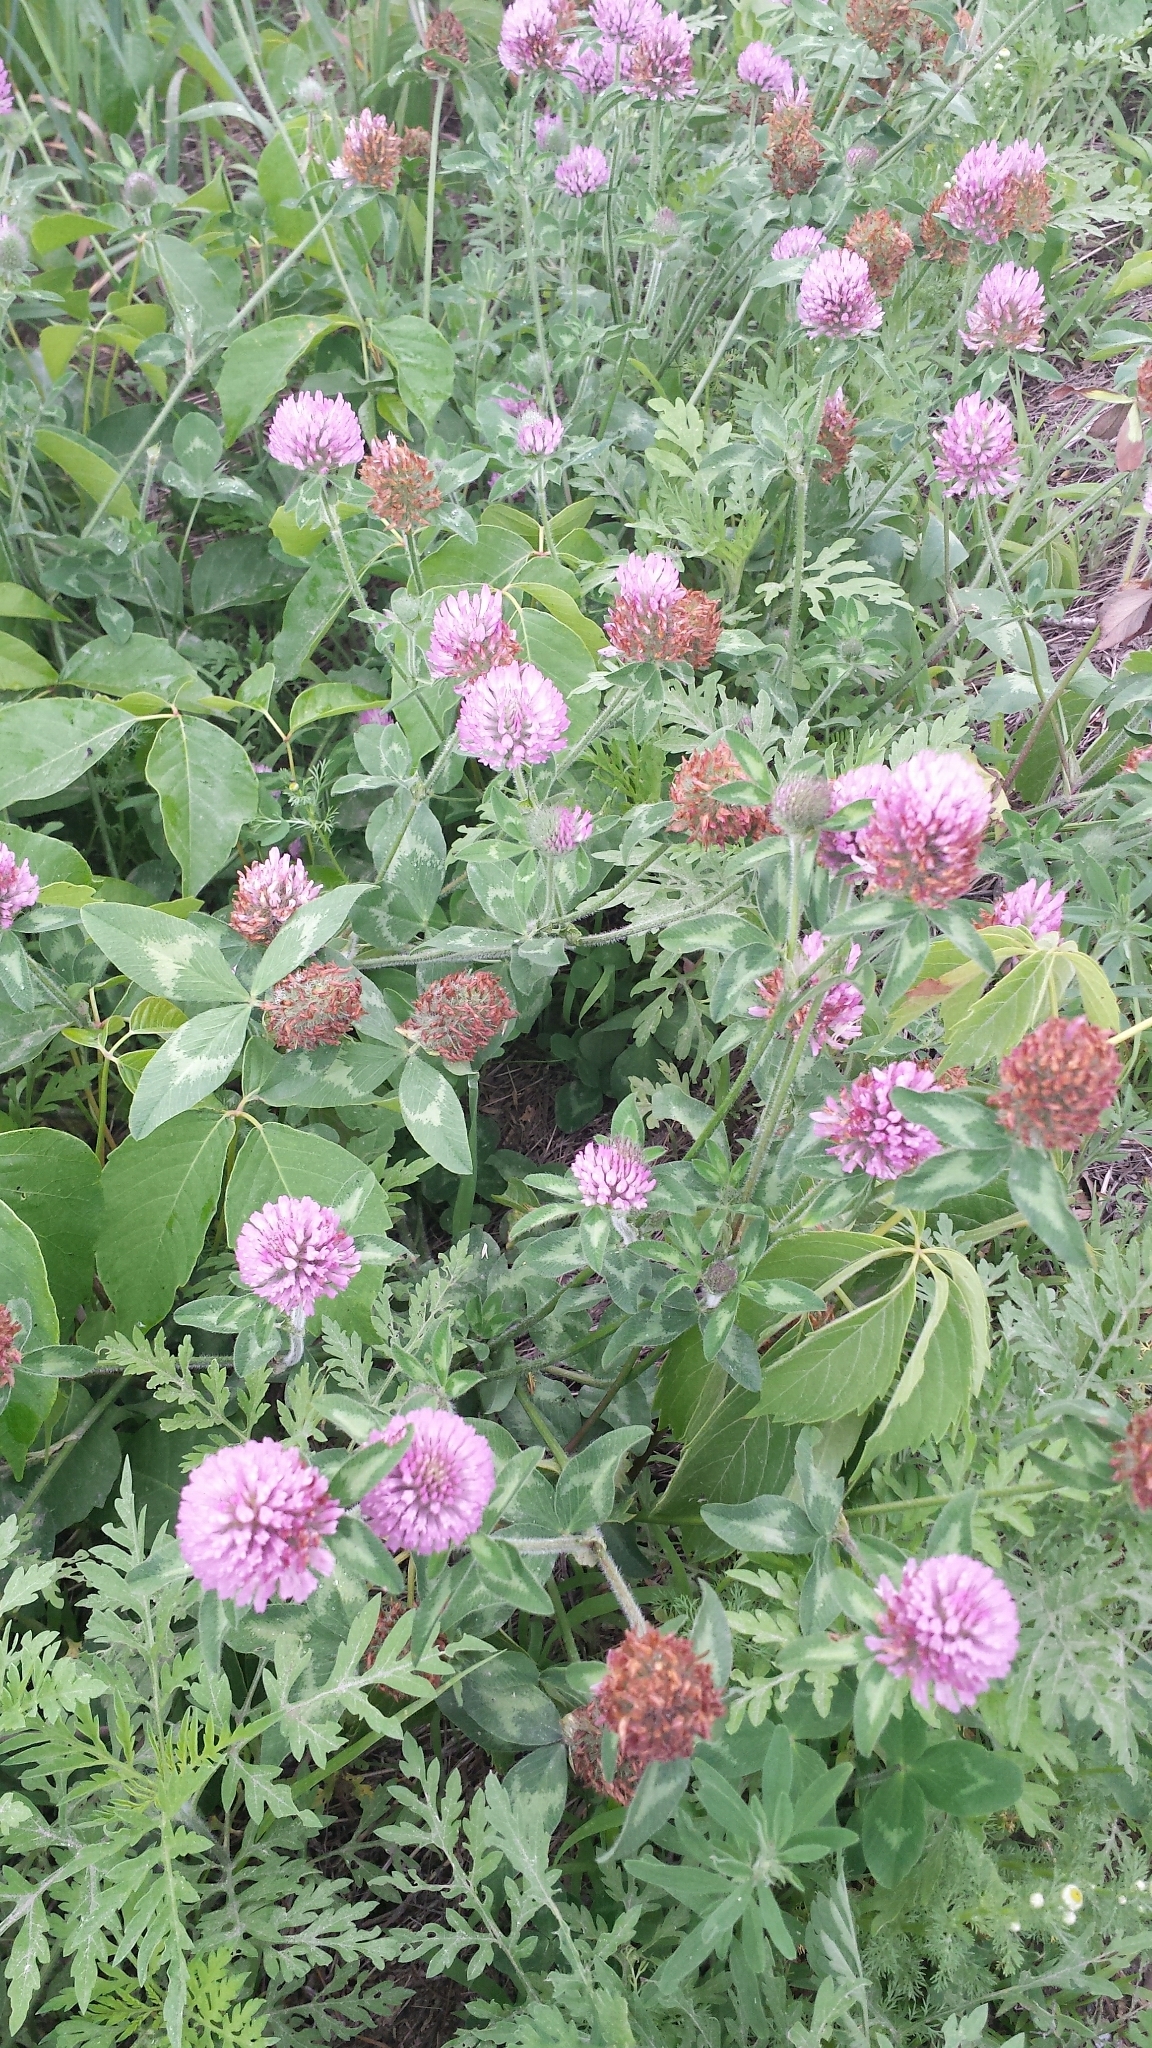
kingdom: Plantae
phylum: Tracheophyta
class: Magnoliopsida
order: Fabales
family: Fabaceae
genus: Trifolium
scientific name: Trifolium pratense
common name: Red clover
